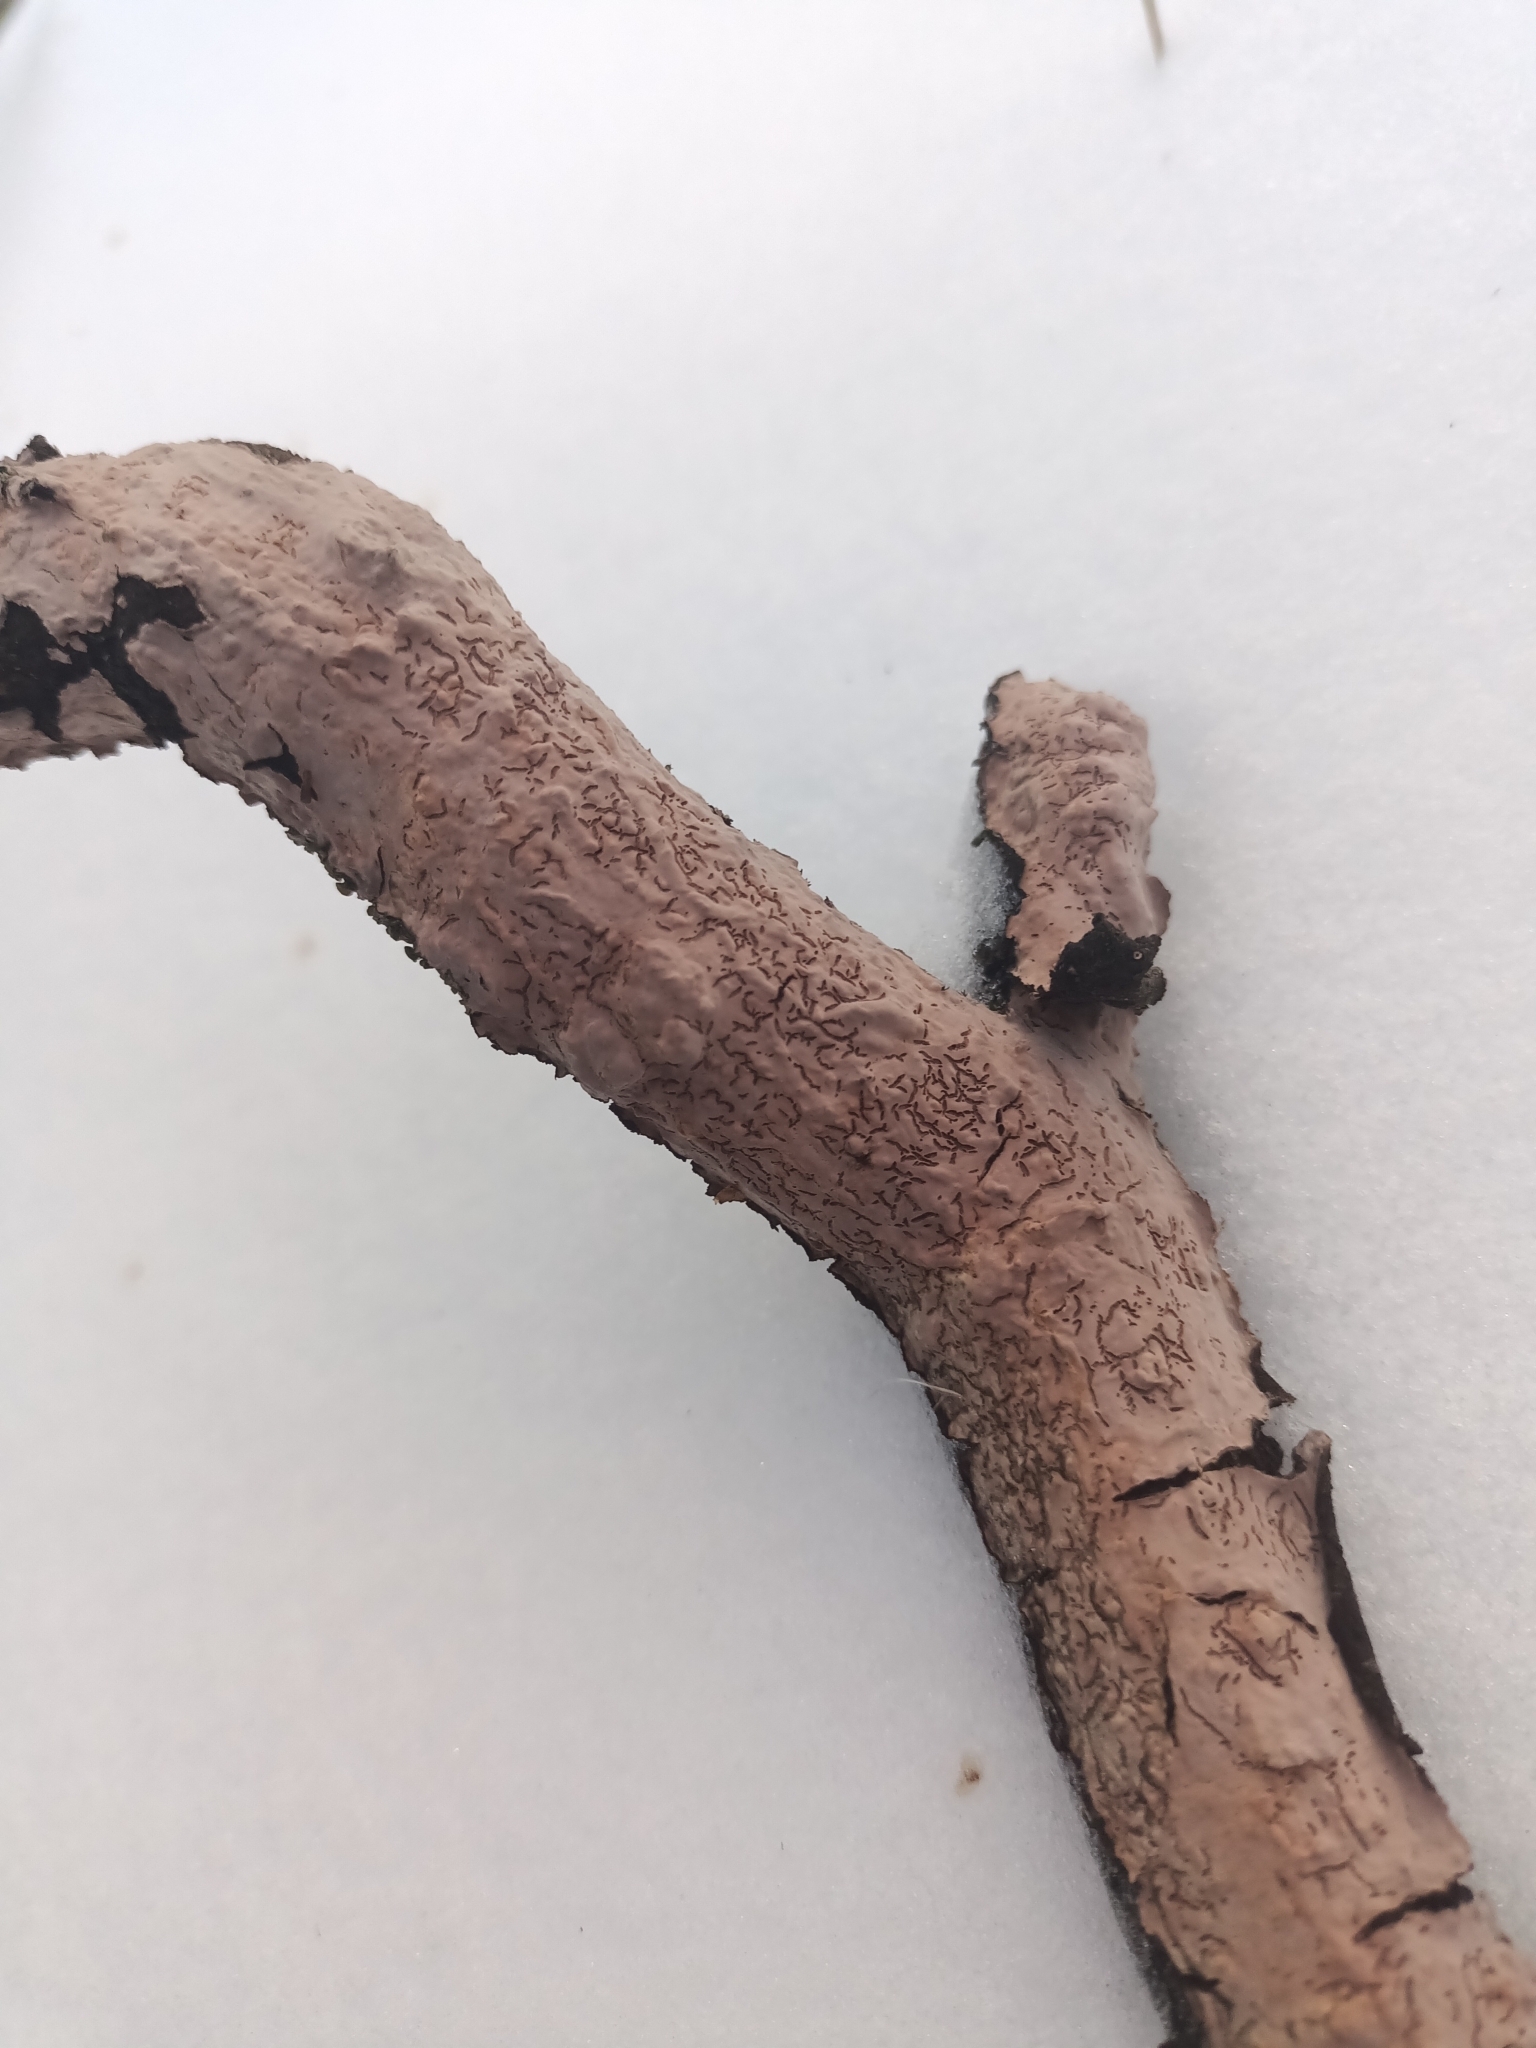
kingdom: Fungi
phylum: Basidiomycota
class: Agaricomycetes
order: Russulales
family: Peniophoraceae
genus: Peniophora
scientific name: Peniophora quercina
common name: Oak crust
